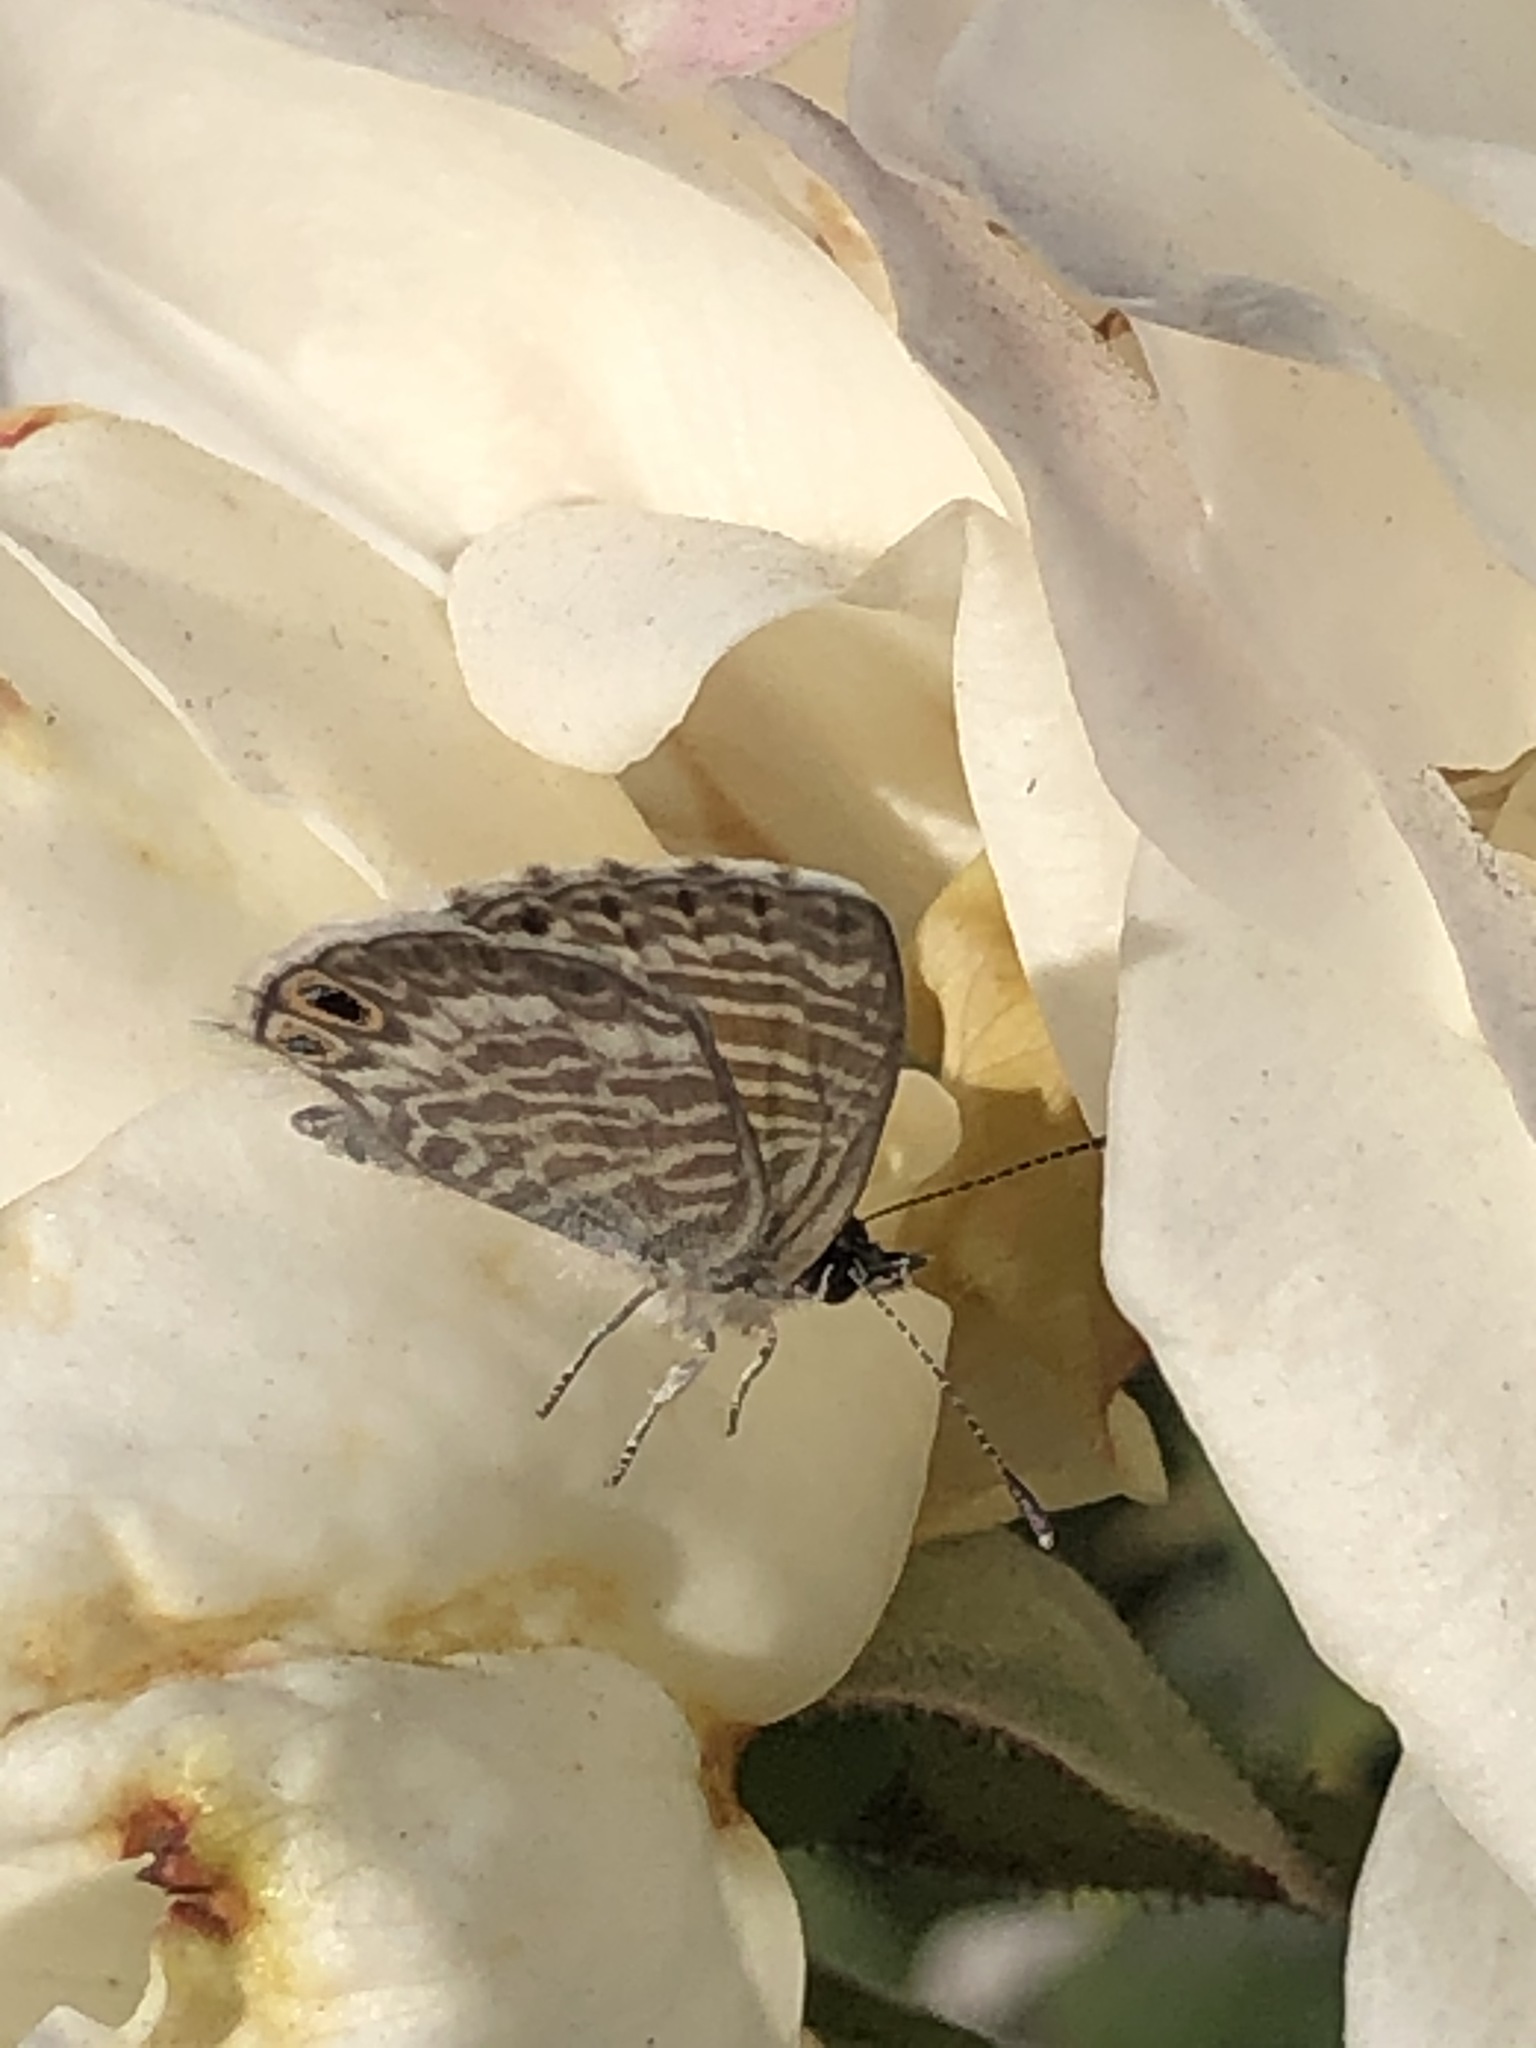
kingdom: Animalia
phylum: Arthropoda
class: Insecta
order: Lepidoptera
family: Lycaenidae
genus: Leptotes
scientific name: Leptotes marina
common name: Marine blue
